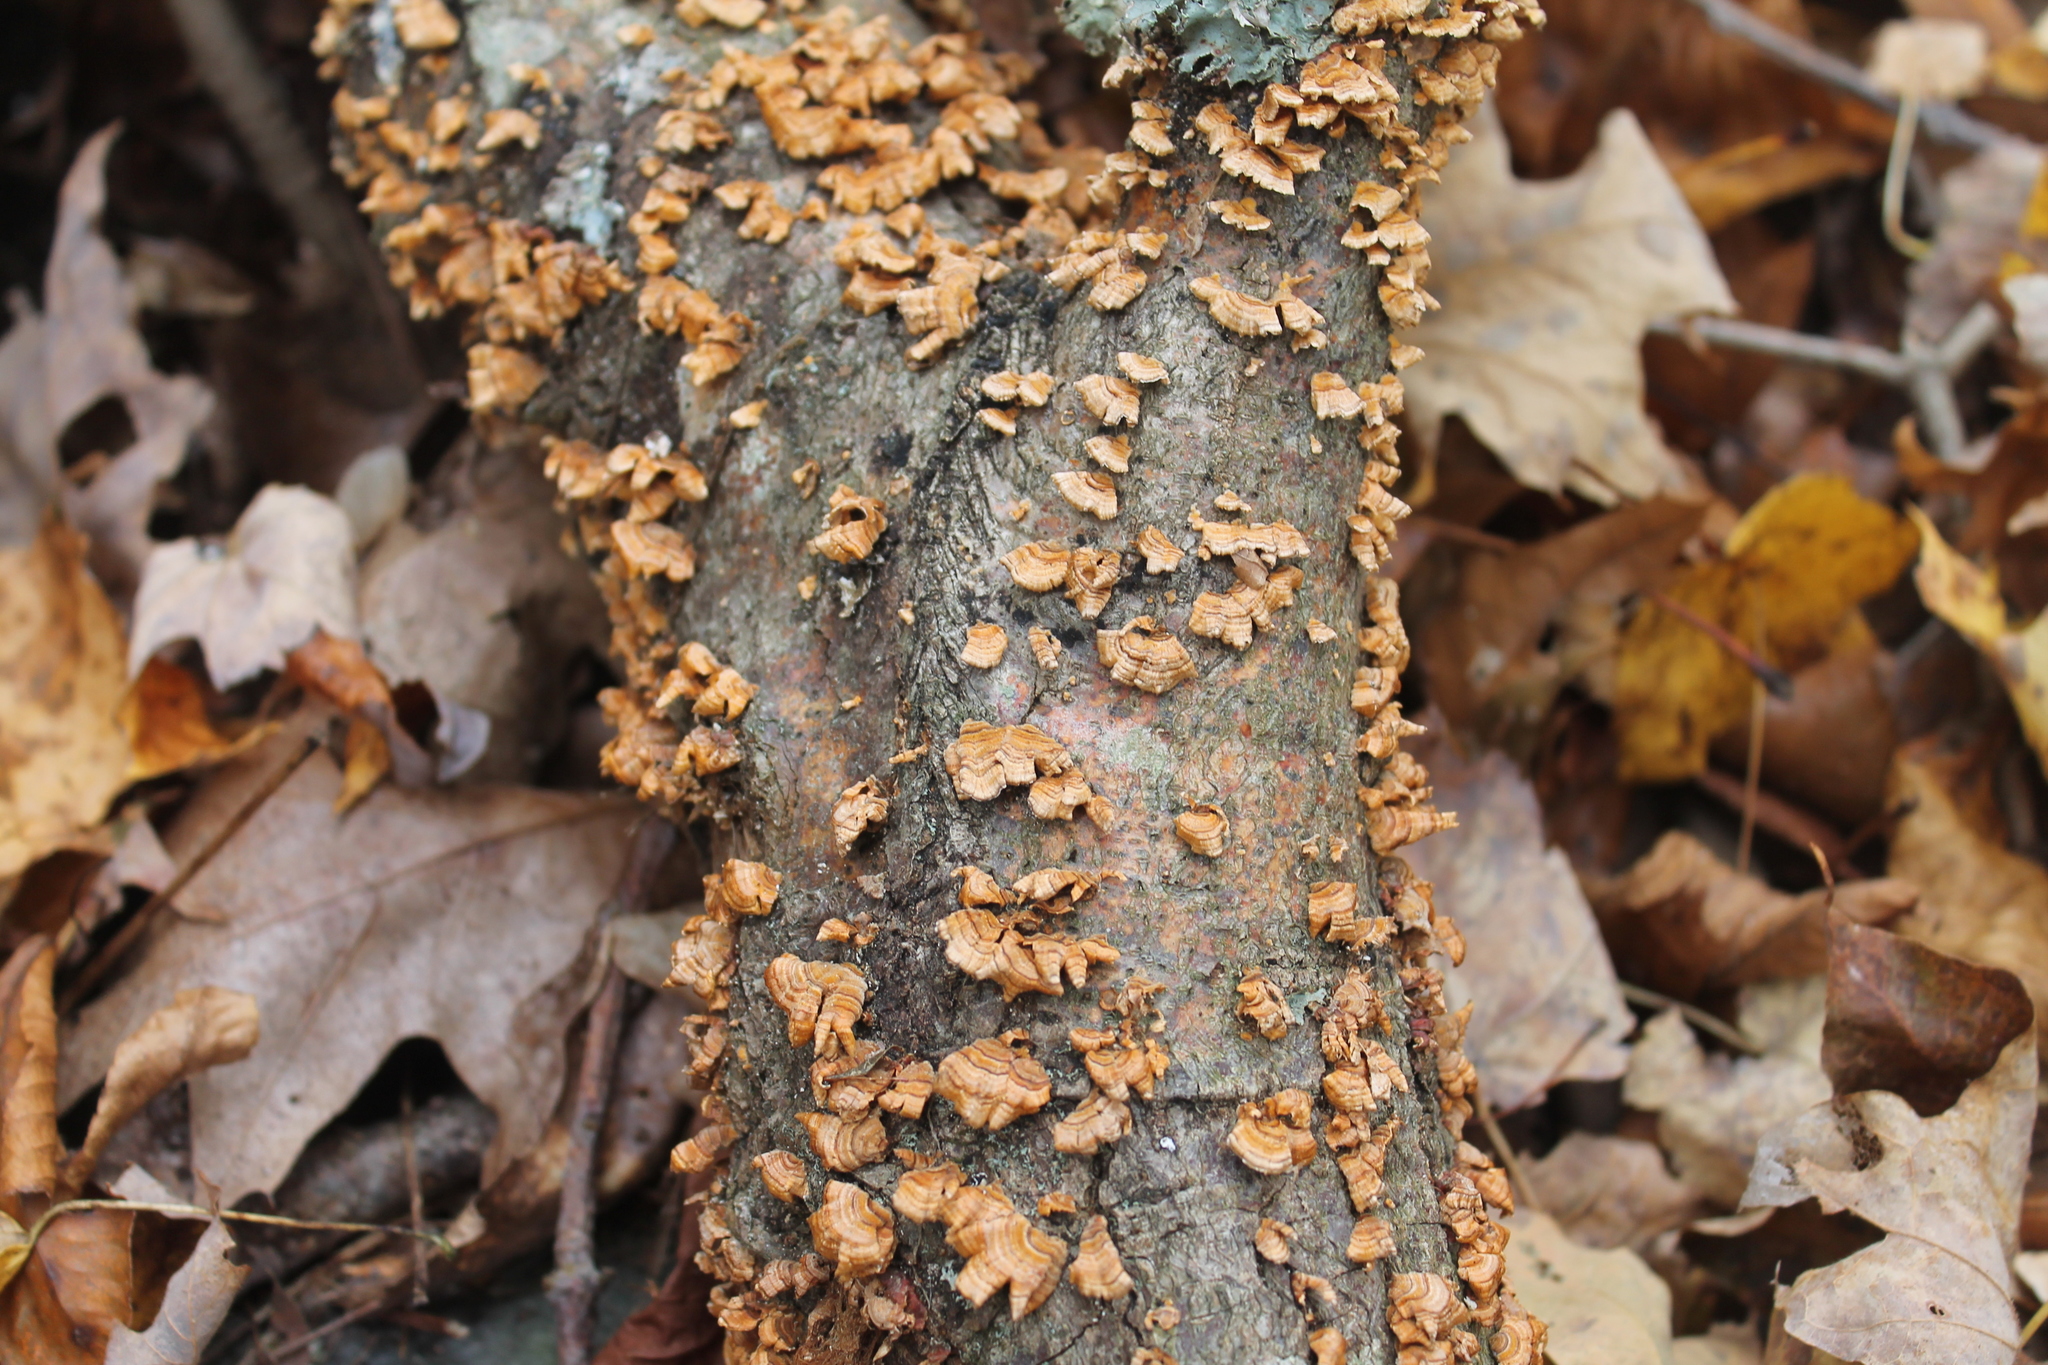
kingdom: Fungi
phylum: Basidiomycota
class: Agaricomycetes
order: Russulales
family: Stereaceae
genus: Stereum
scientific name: Stereum complicatum
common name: Crowded parchment
